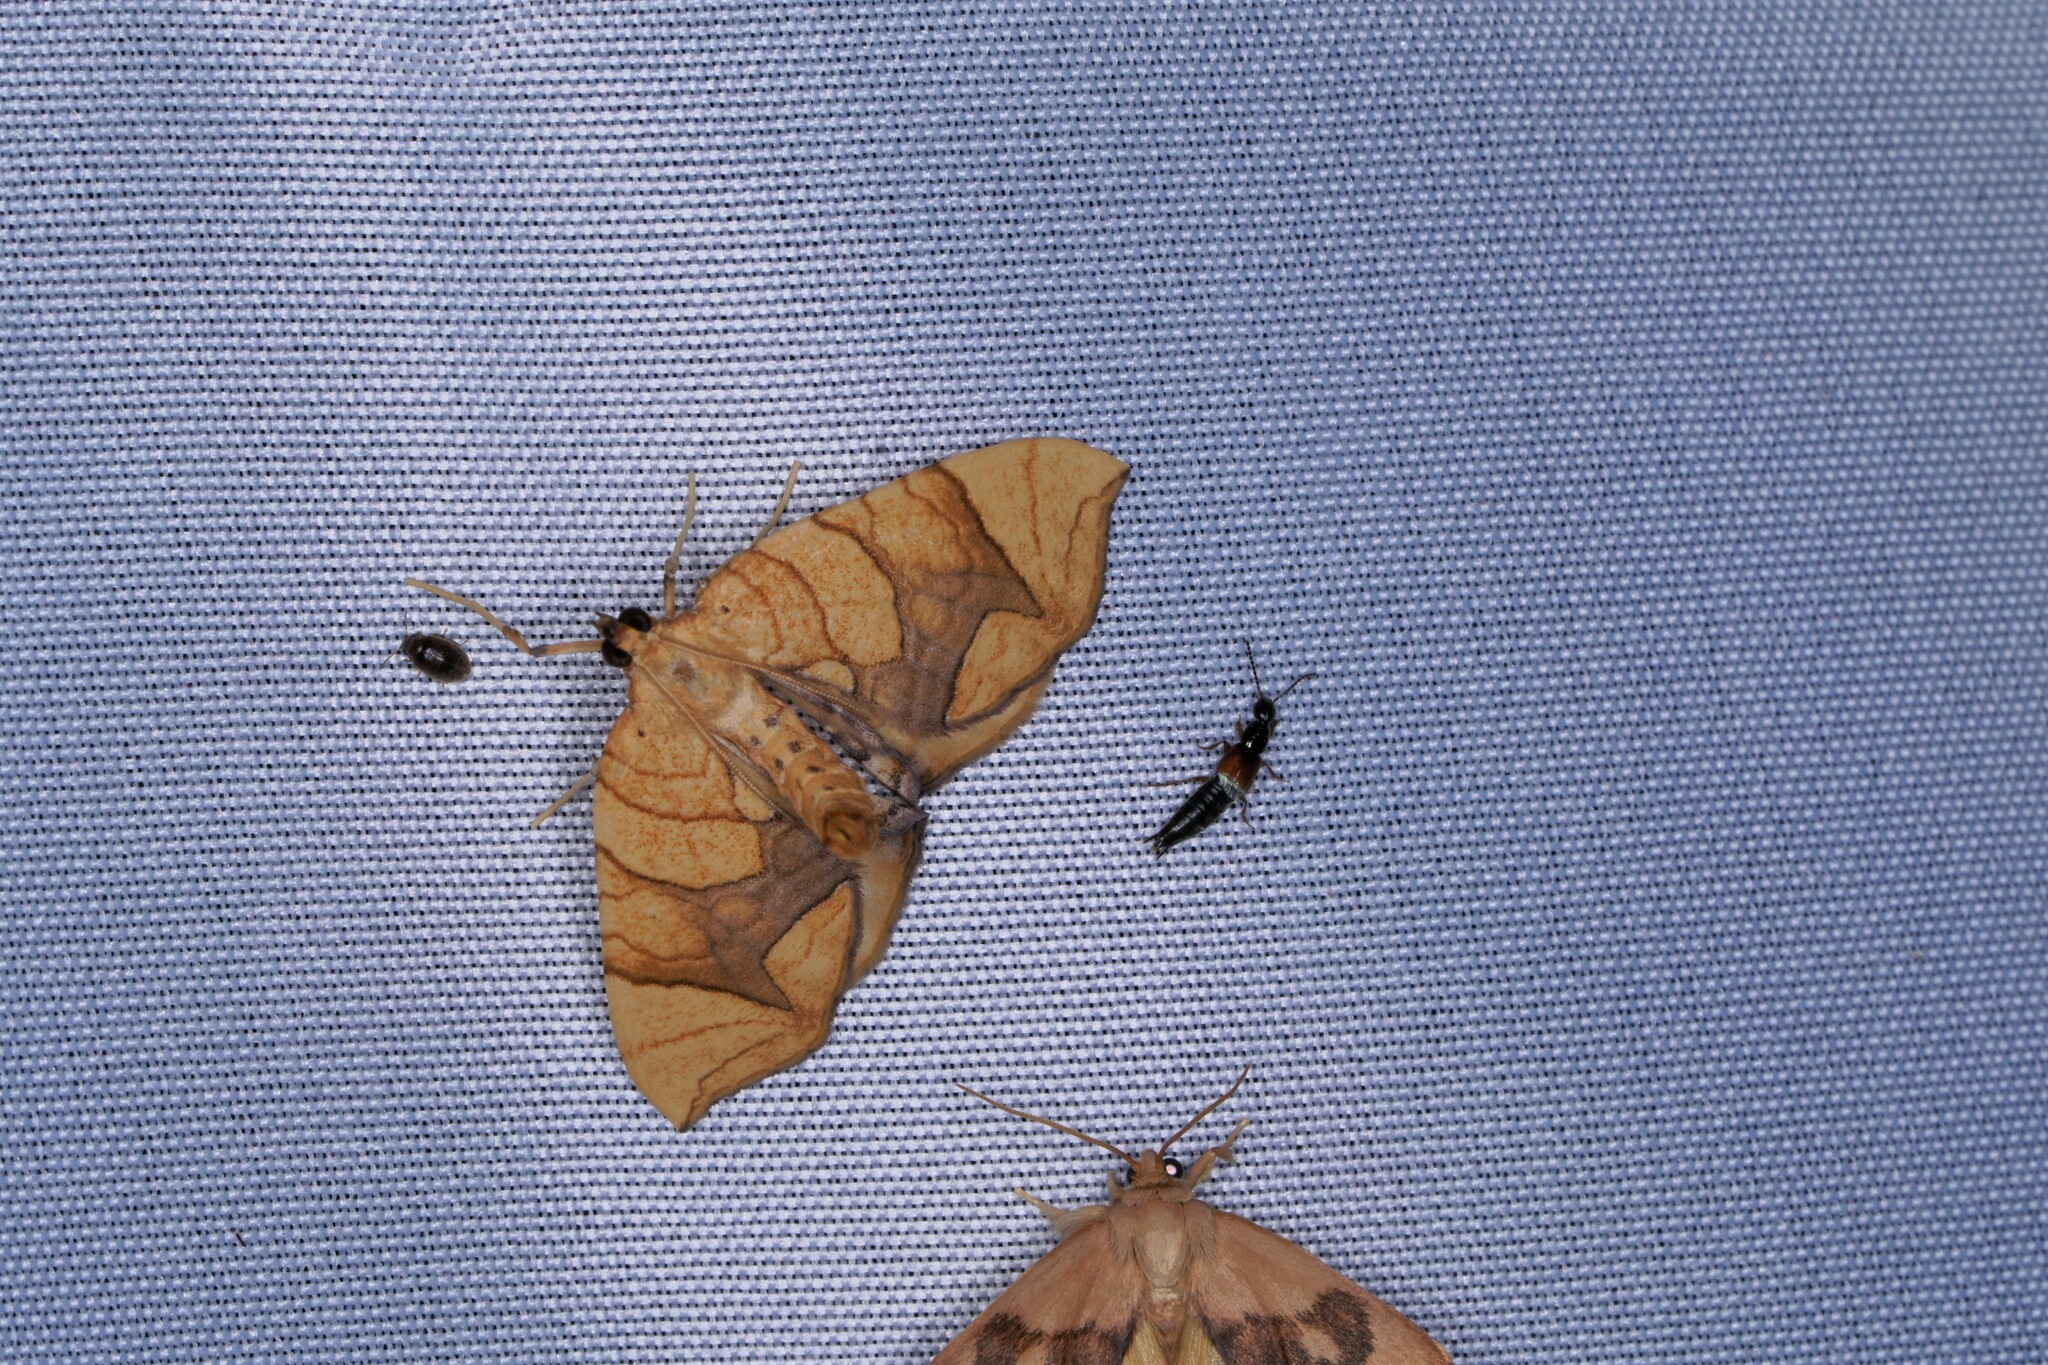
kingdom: Animalia
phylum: Arthropoda
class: Insecta
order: Lepidoptera
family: Geometridae
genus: Eulithis
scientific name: Eulithis
